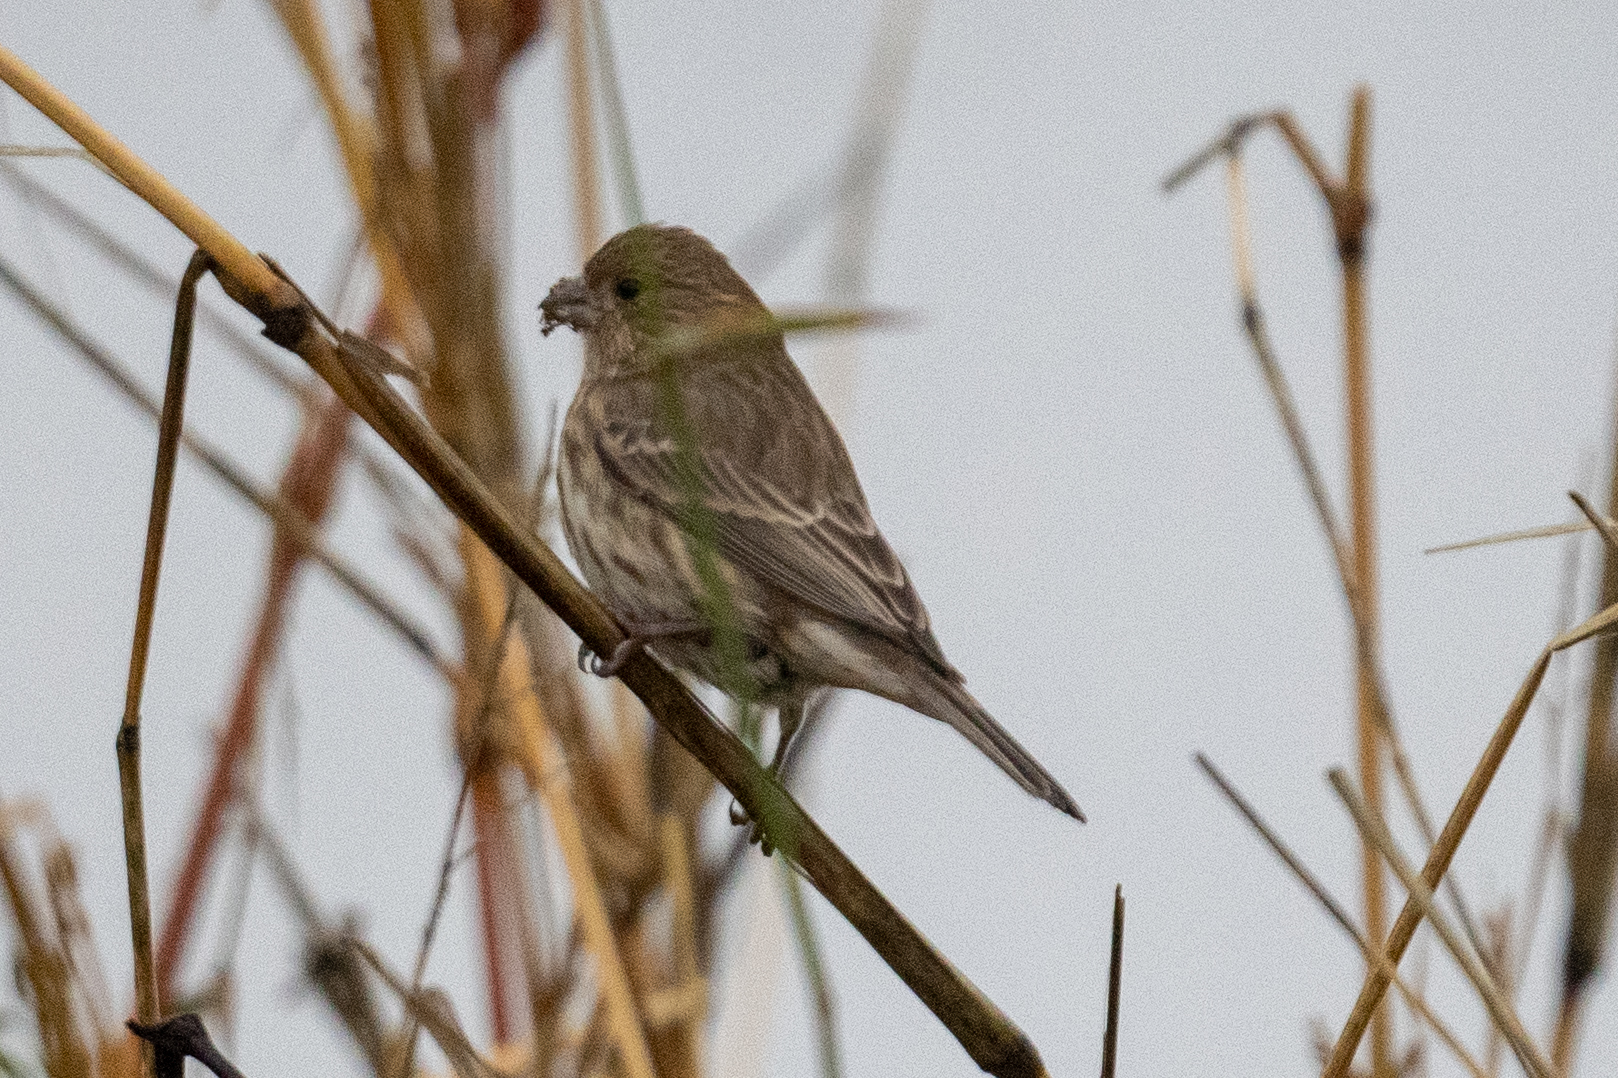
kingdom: Animalia
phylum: Chordata
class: Aves
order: Passeriformes
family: Fringillidae
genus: Haemorhous
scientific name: Haemorhous mexicanus
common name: House finch
